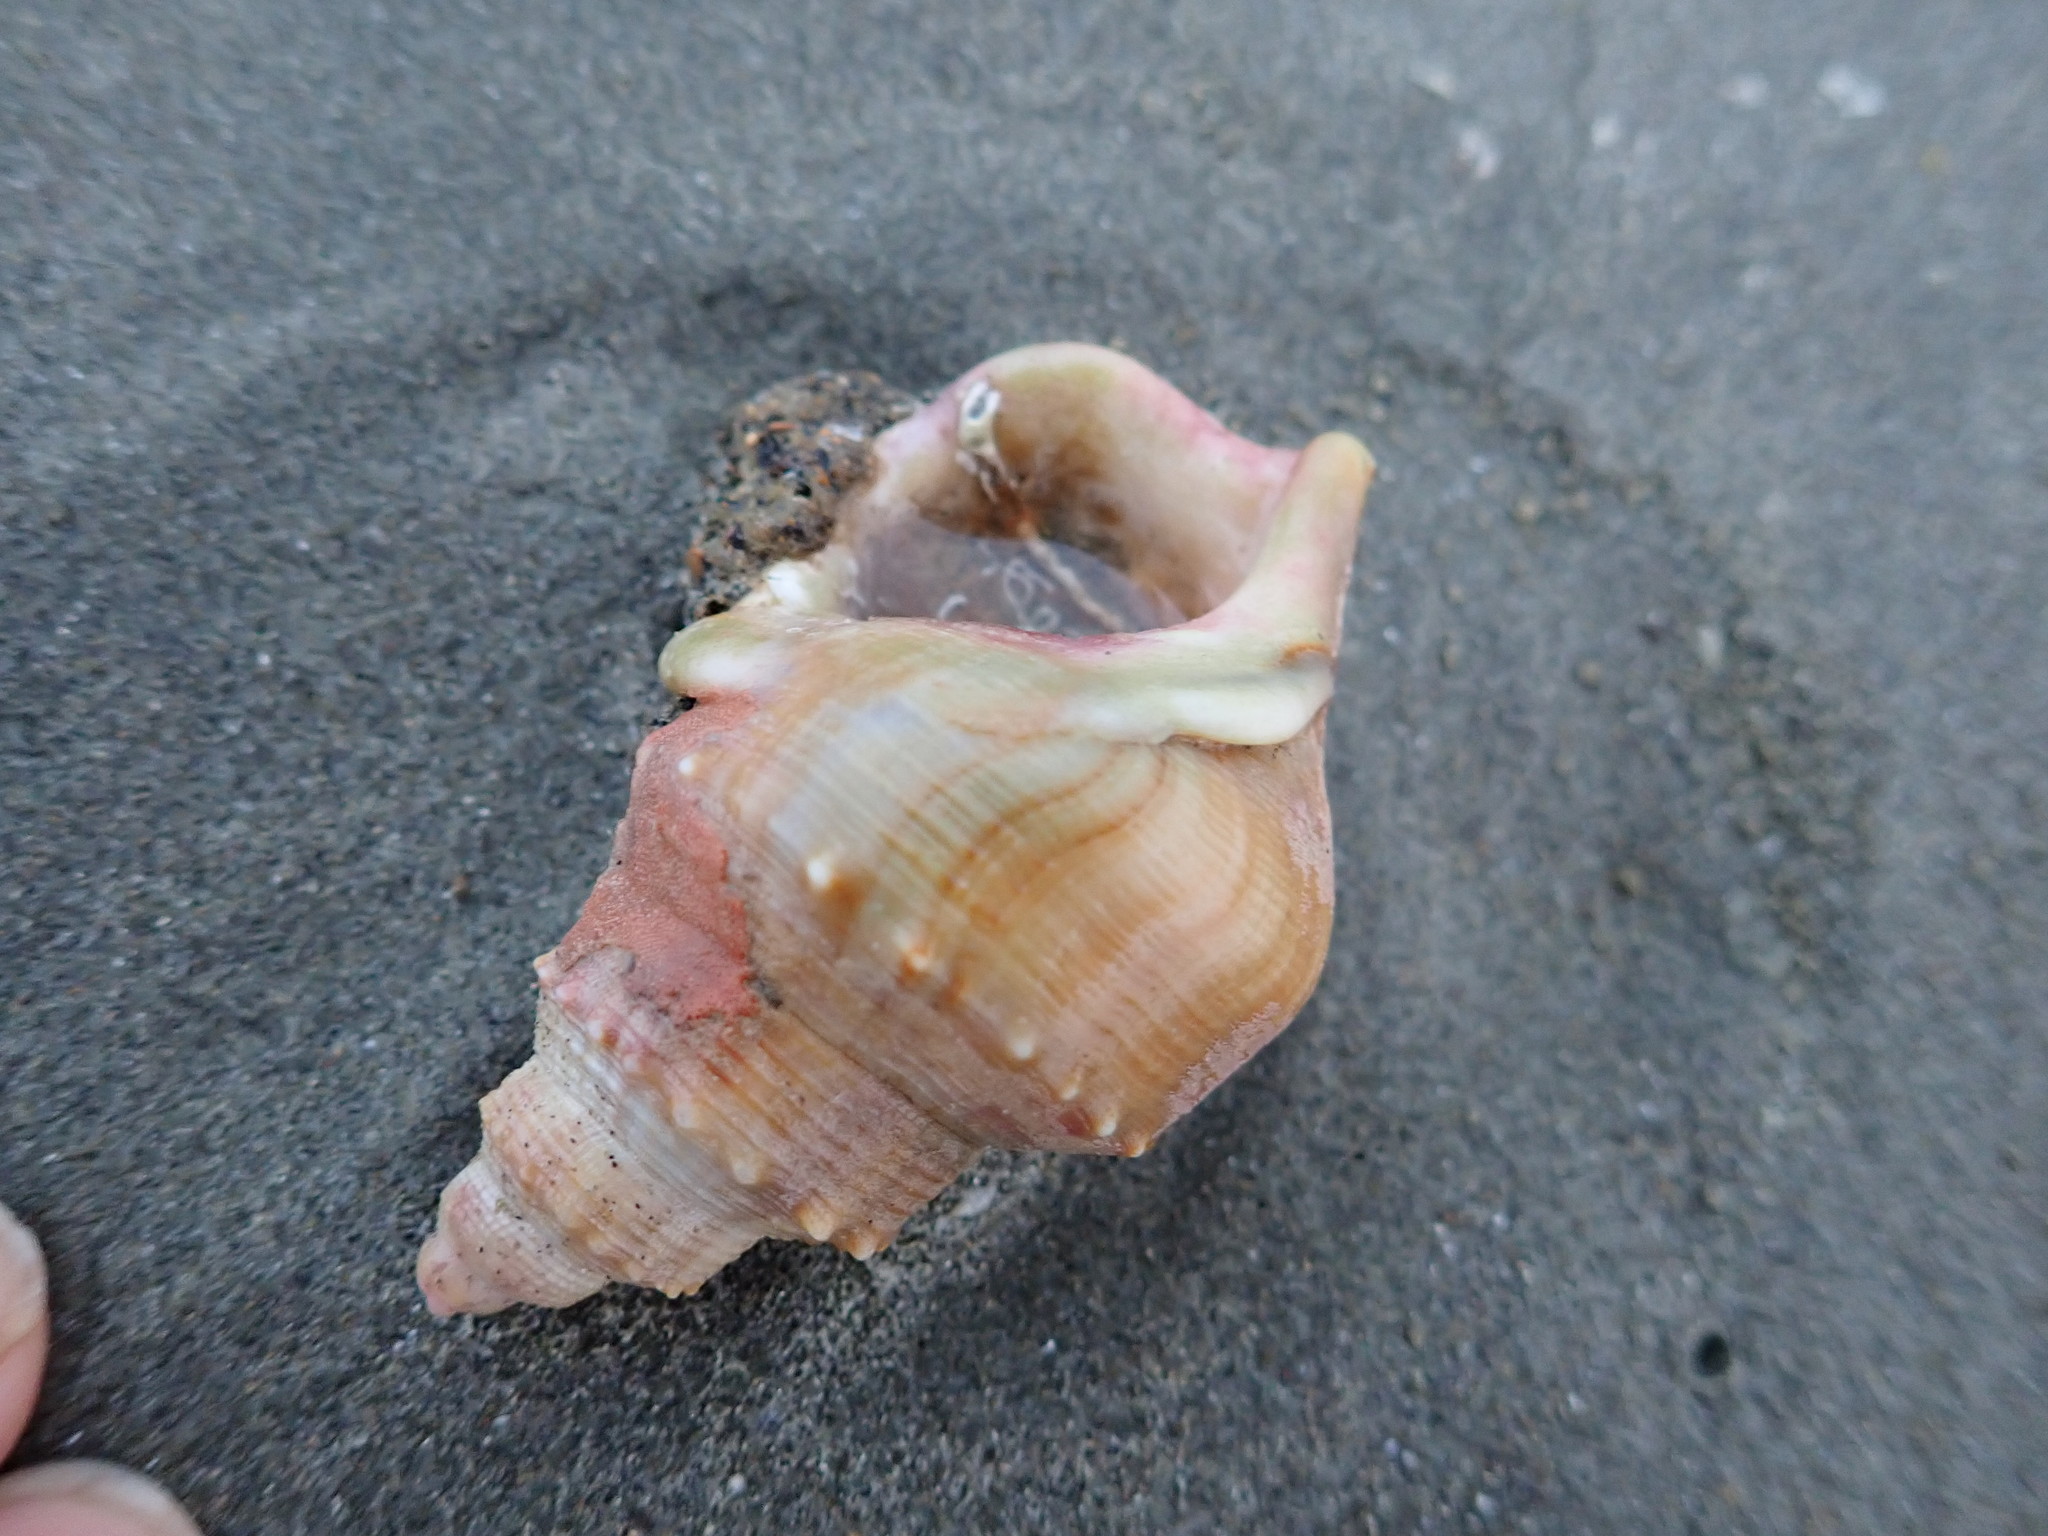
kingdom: Animalia
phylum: Mollusca
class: Gastropoda
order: Littorinimorpha
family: Struthiolariidae
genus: Struthiolaria
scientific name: Struthiolaria papulosa
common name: Large ostrich foot
